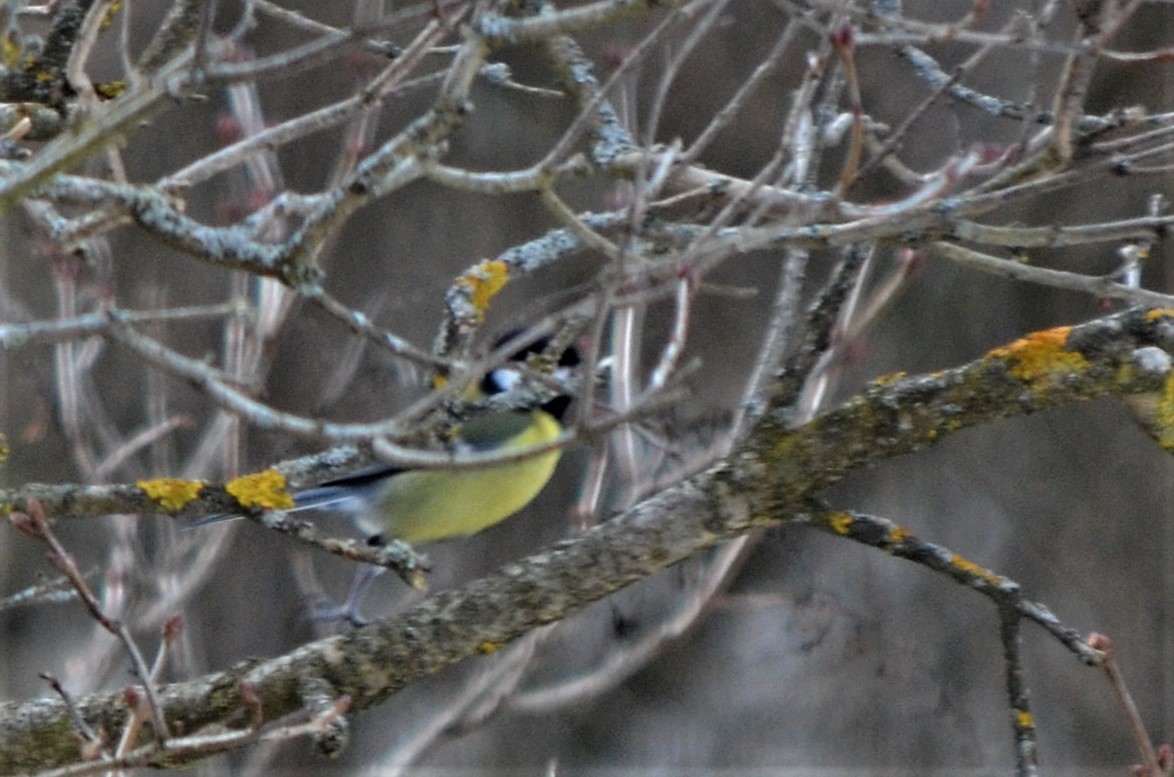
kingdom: Animalia
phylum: Chordata
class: Aves
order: Passeriformes
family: Paridae
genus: Parus
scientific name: Parus major
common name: Great tit
